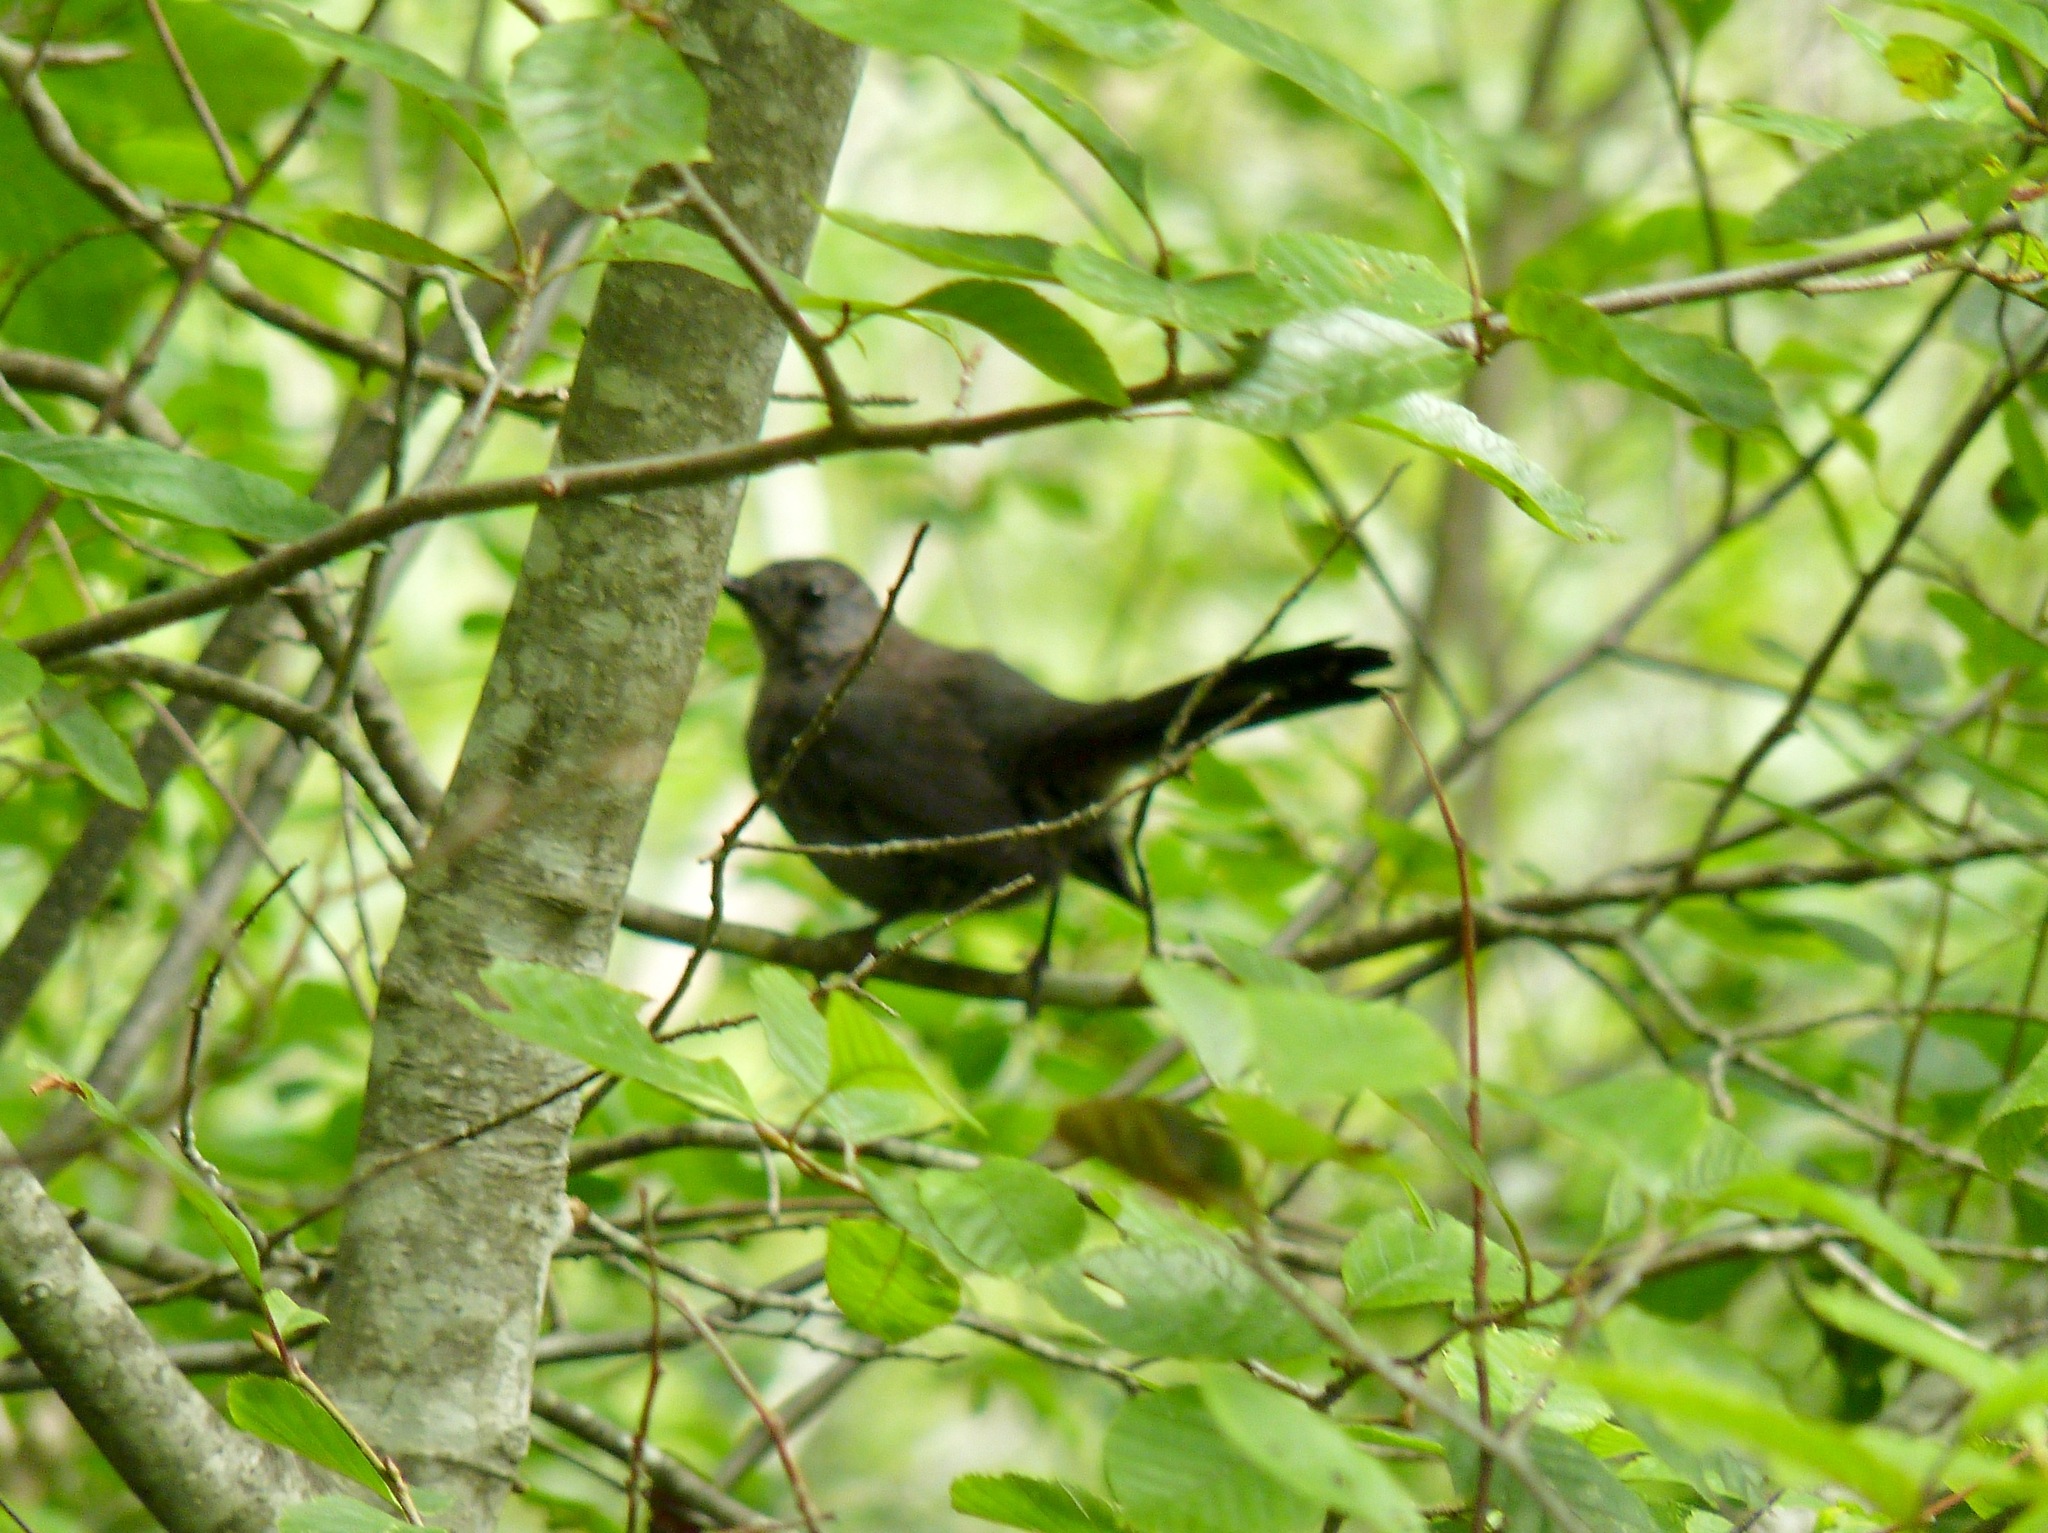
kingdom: Animalia
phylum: Chordata
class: Aves
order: Passeriformes
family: Mimidae
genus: Dumetella
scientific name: Dumetella carolinensis
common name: Gray catbird
